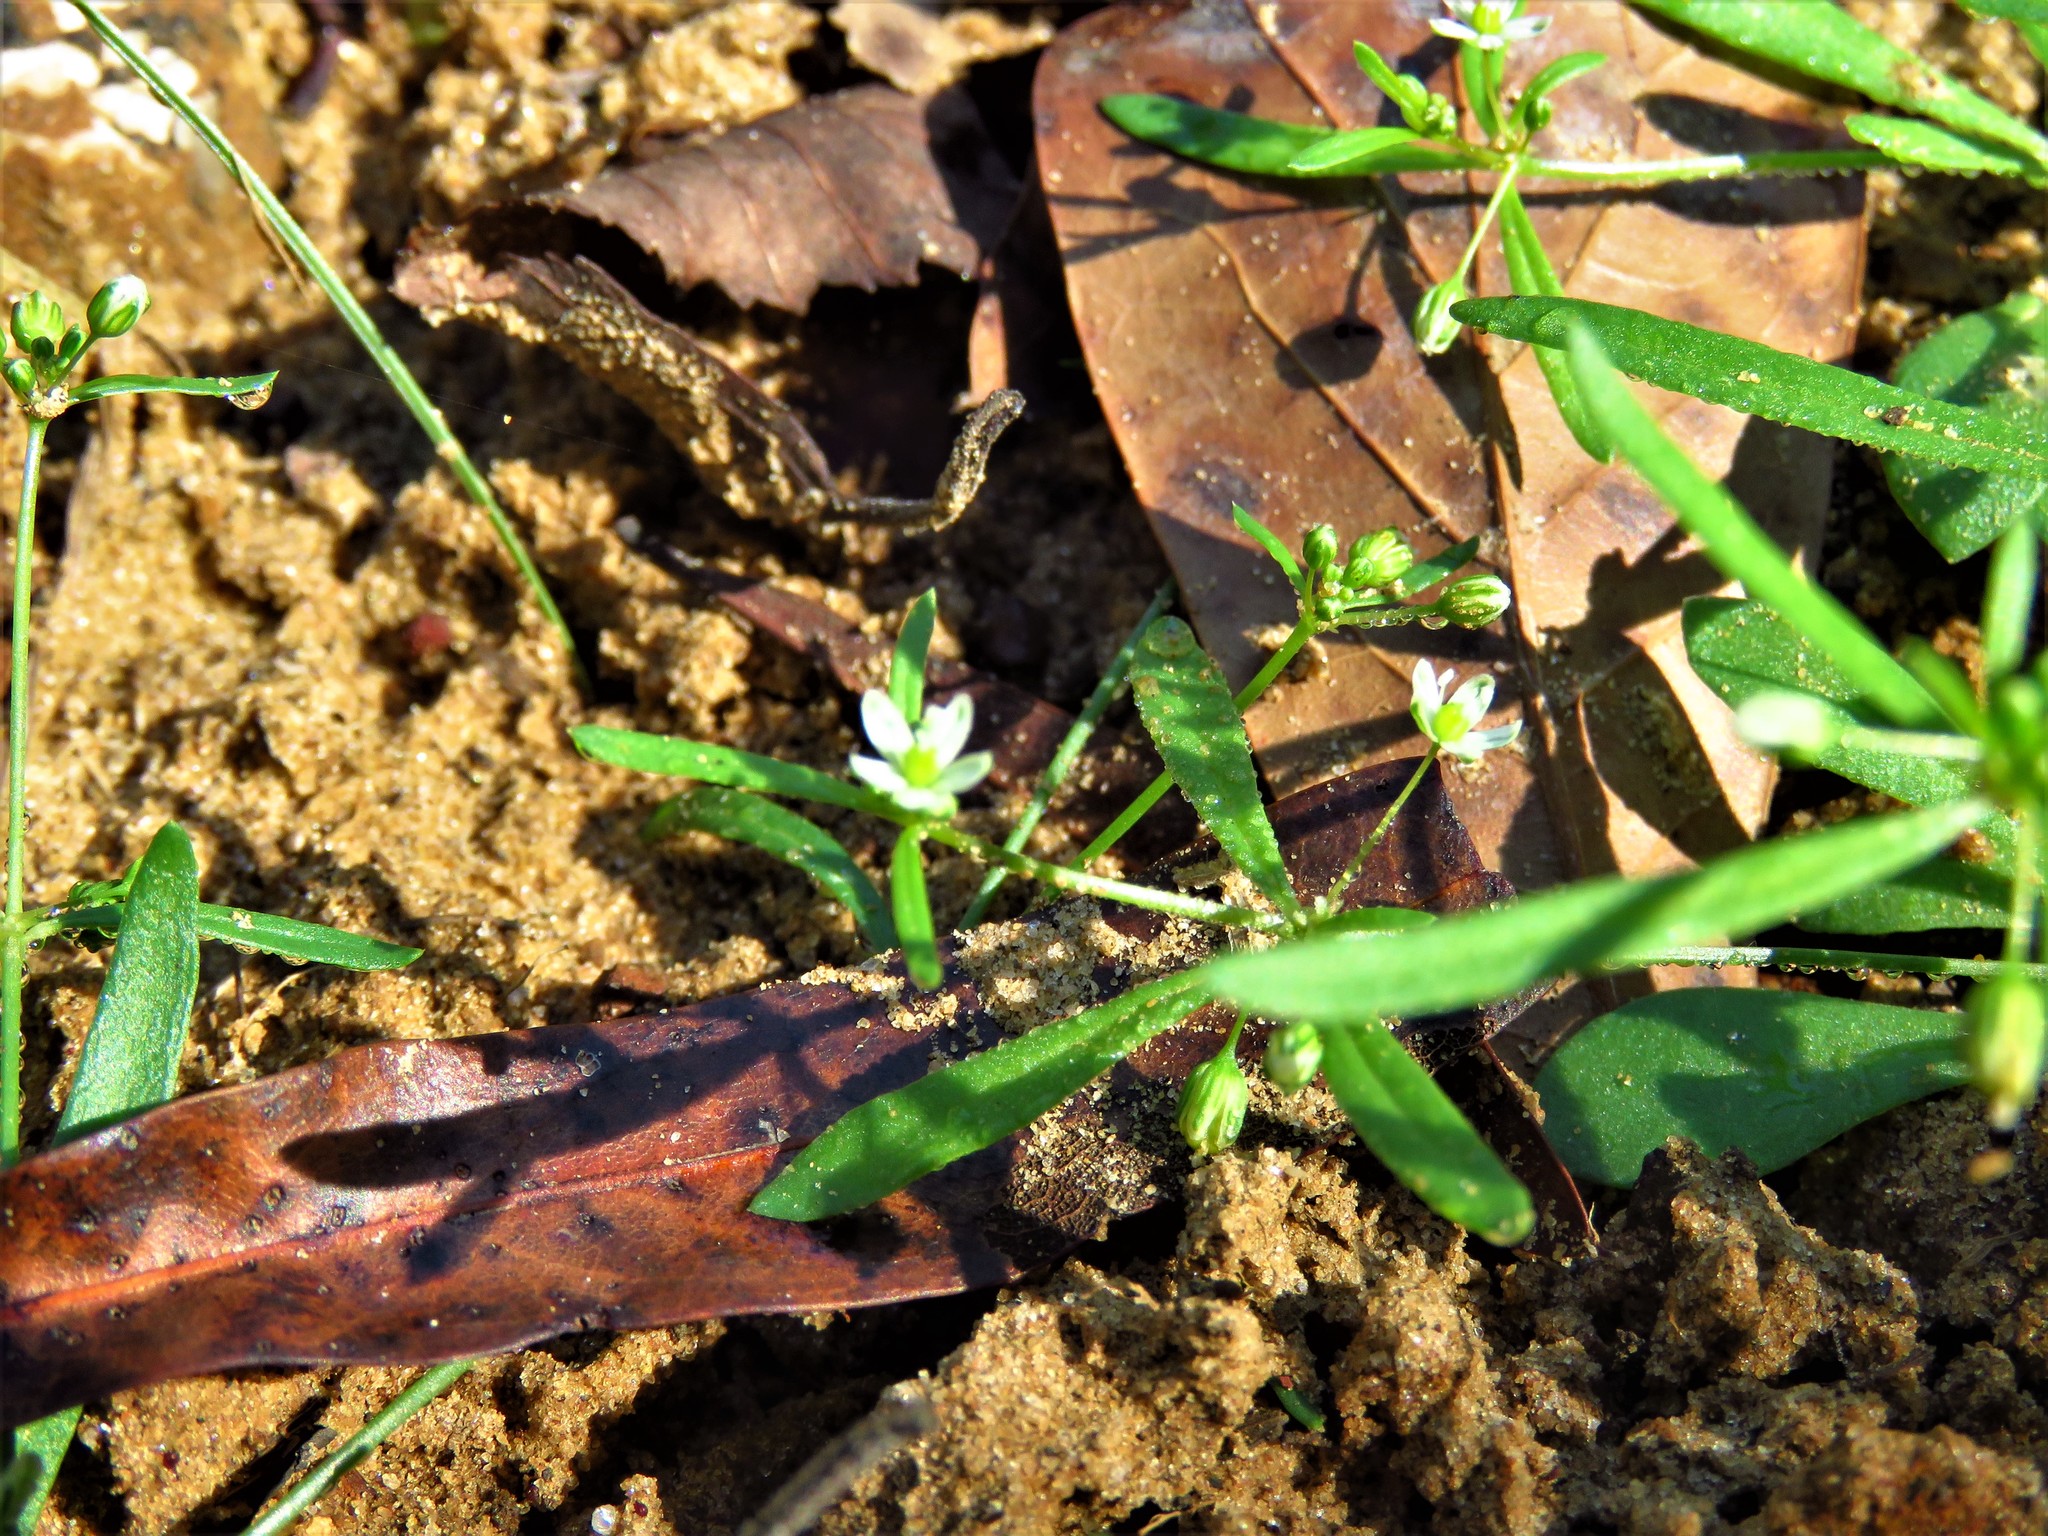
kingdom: Plantae
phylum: Tracheophyta
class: Magnoliopsida
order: Caryophyllales
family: Molluginaceae
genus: Mollugo
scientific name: Mollugo verticillata
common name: Green carpetweed
